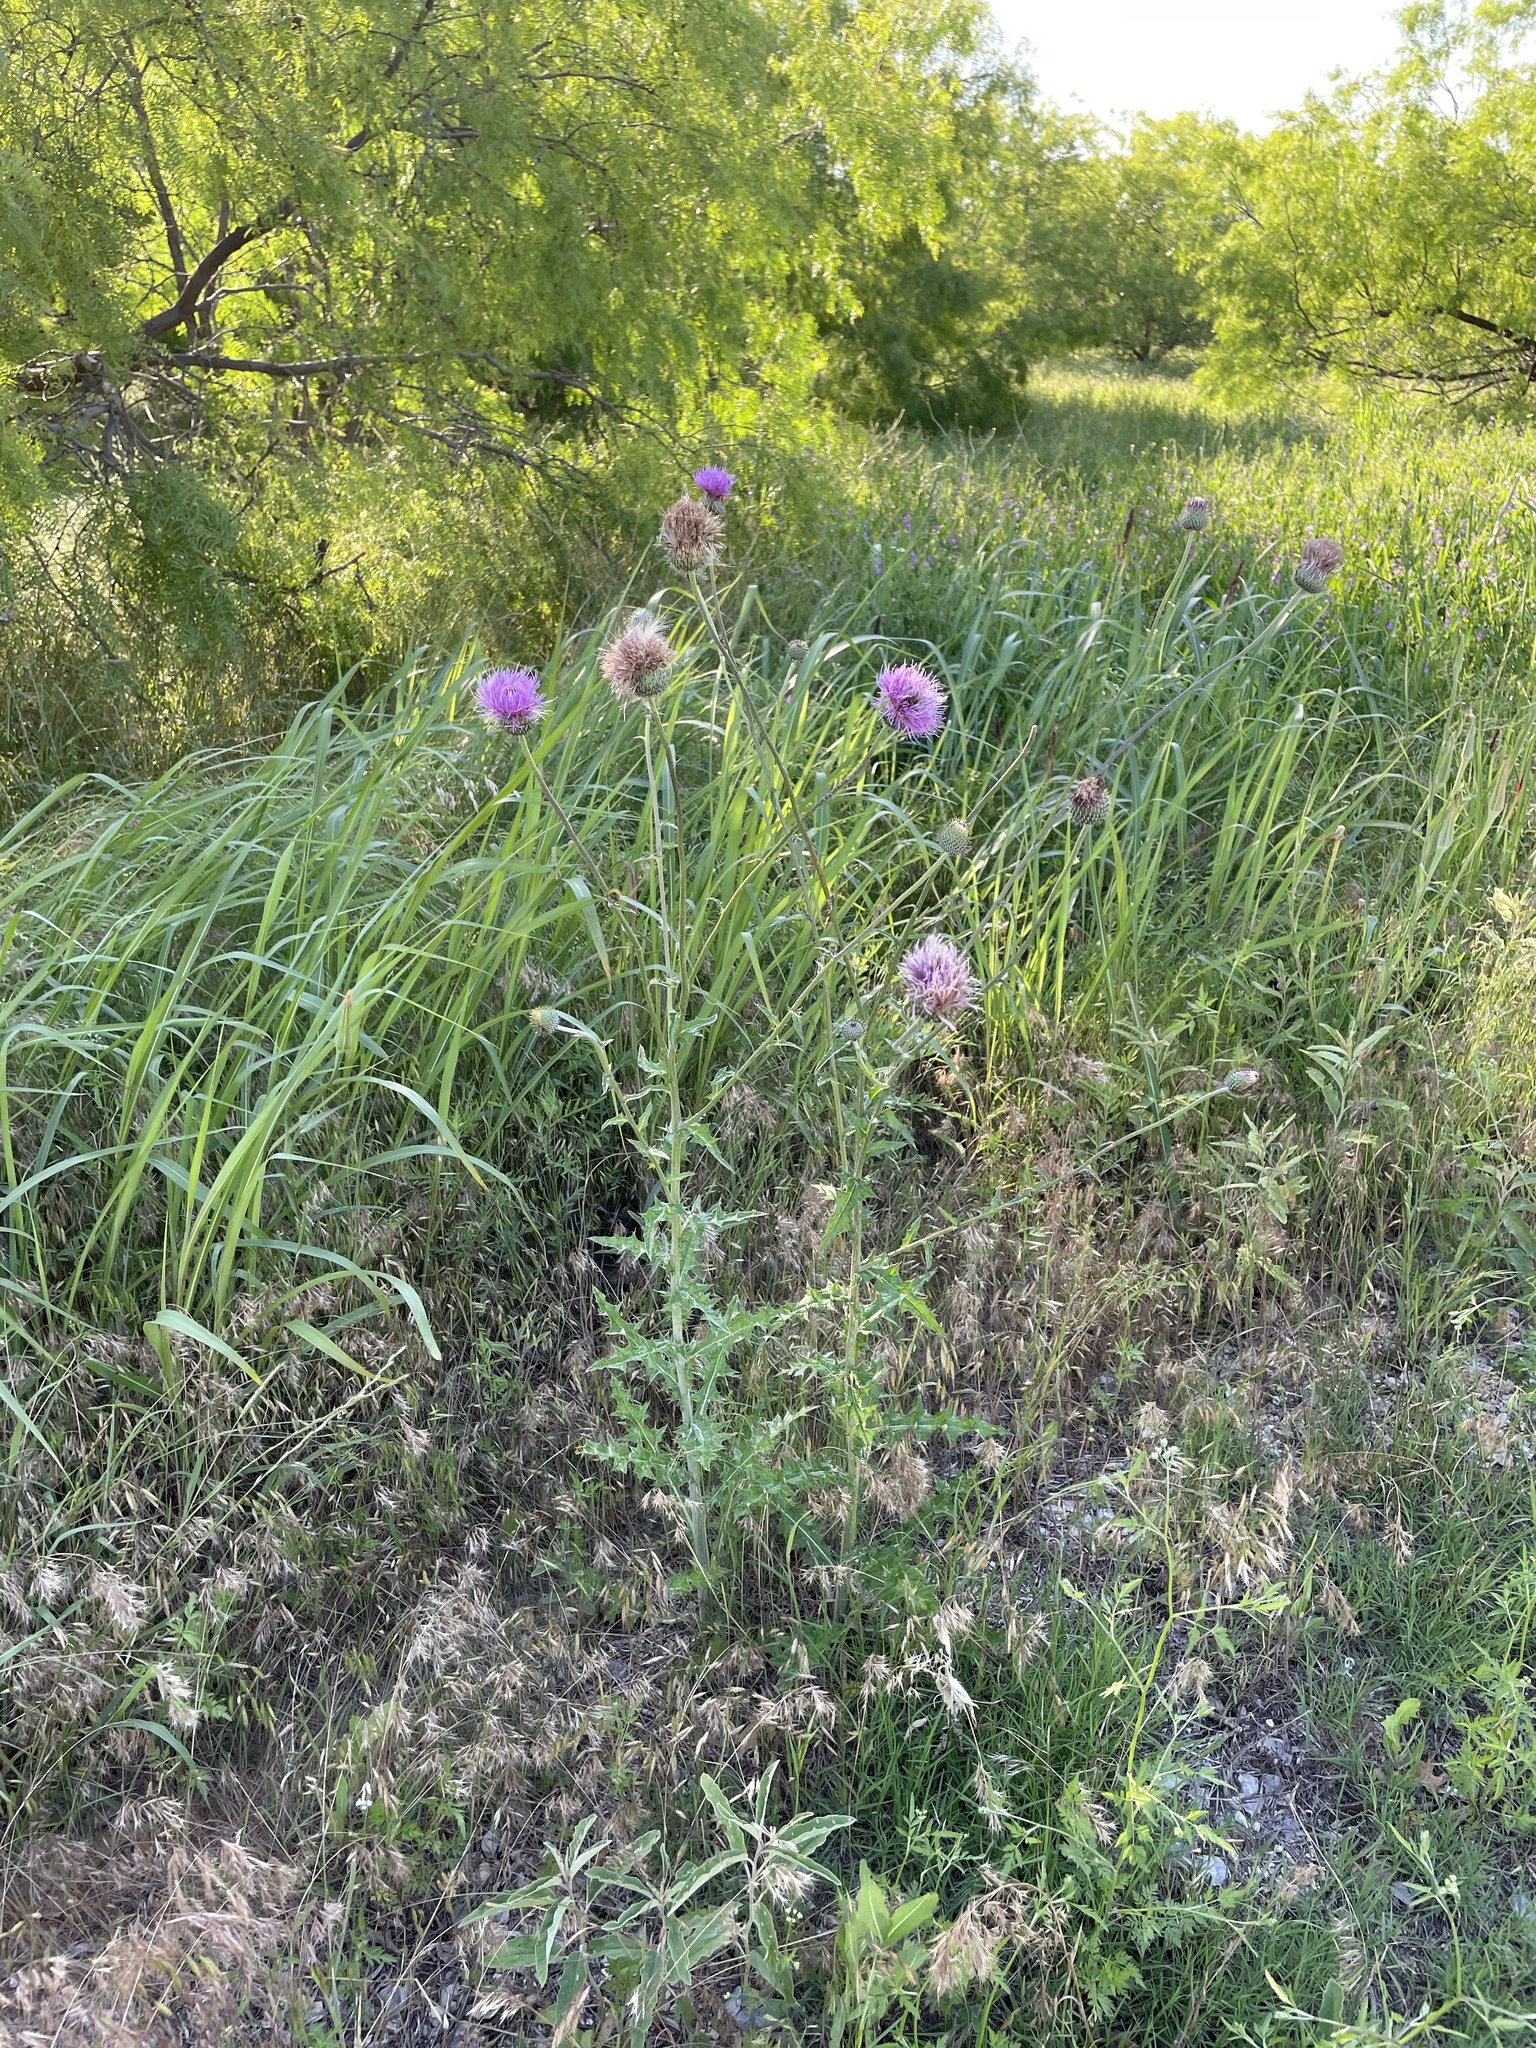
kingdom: Plantae
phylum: Tracheophyta
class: Magnoliopsida
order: Asterales
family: Asteraceae
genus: Cirsium
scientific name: Cirsium texanum
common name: Texas purple thistle
